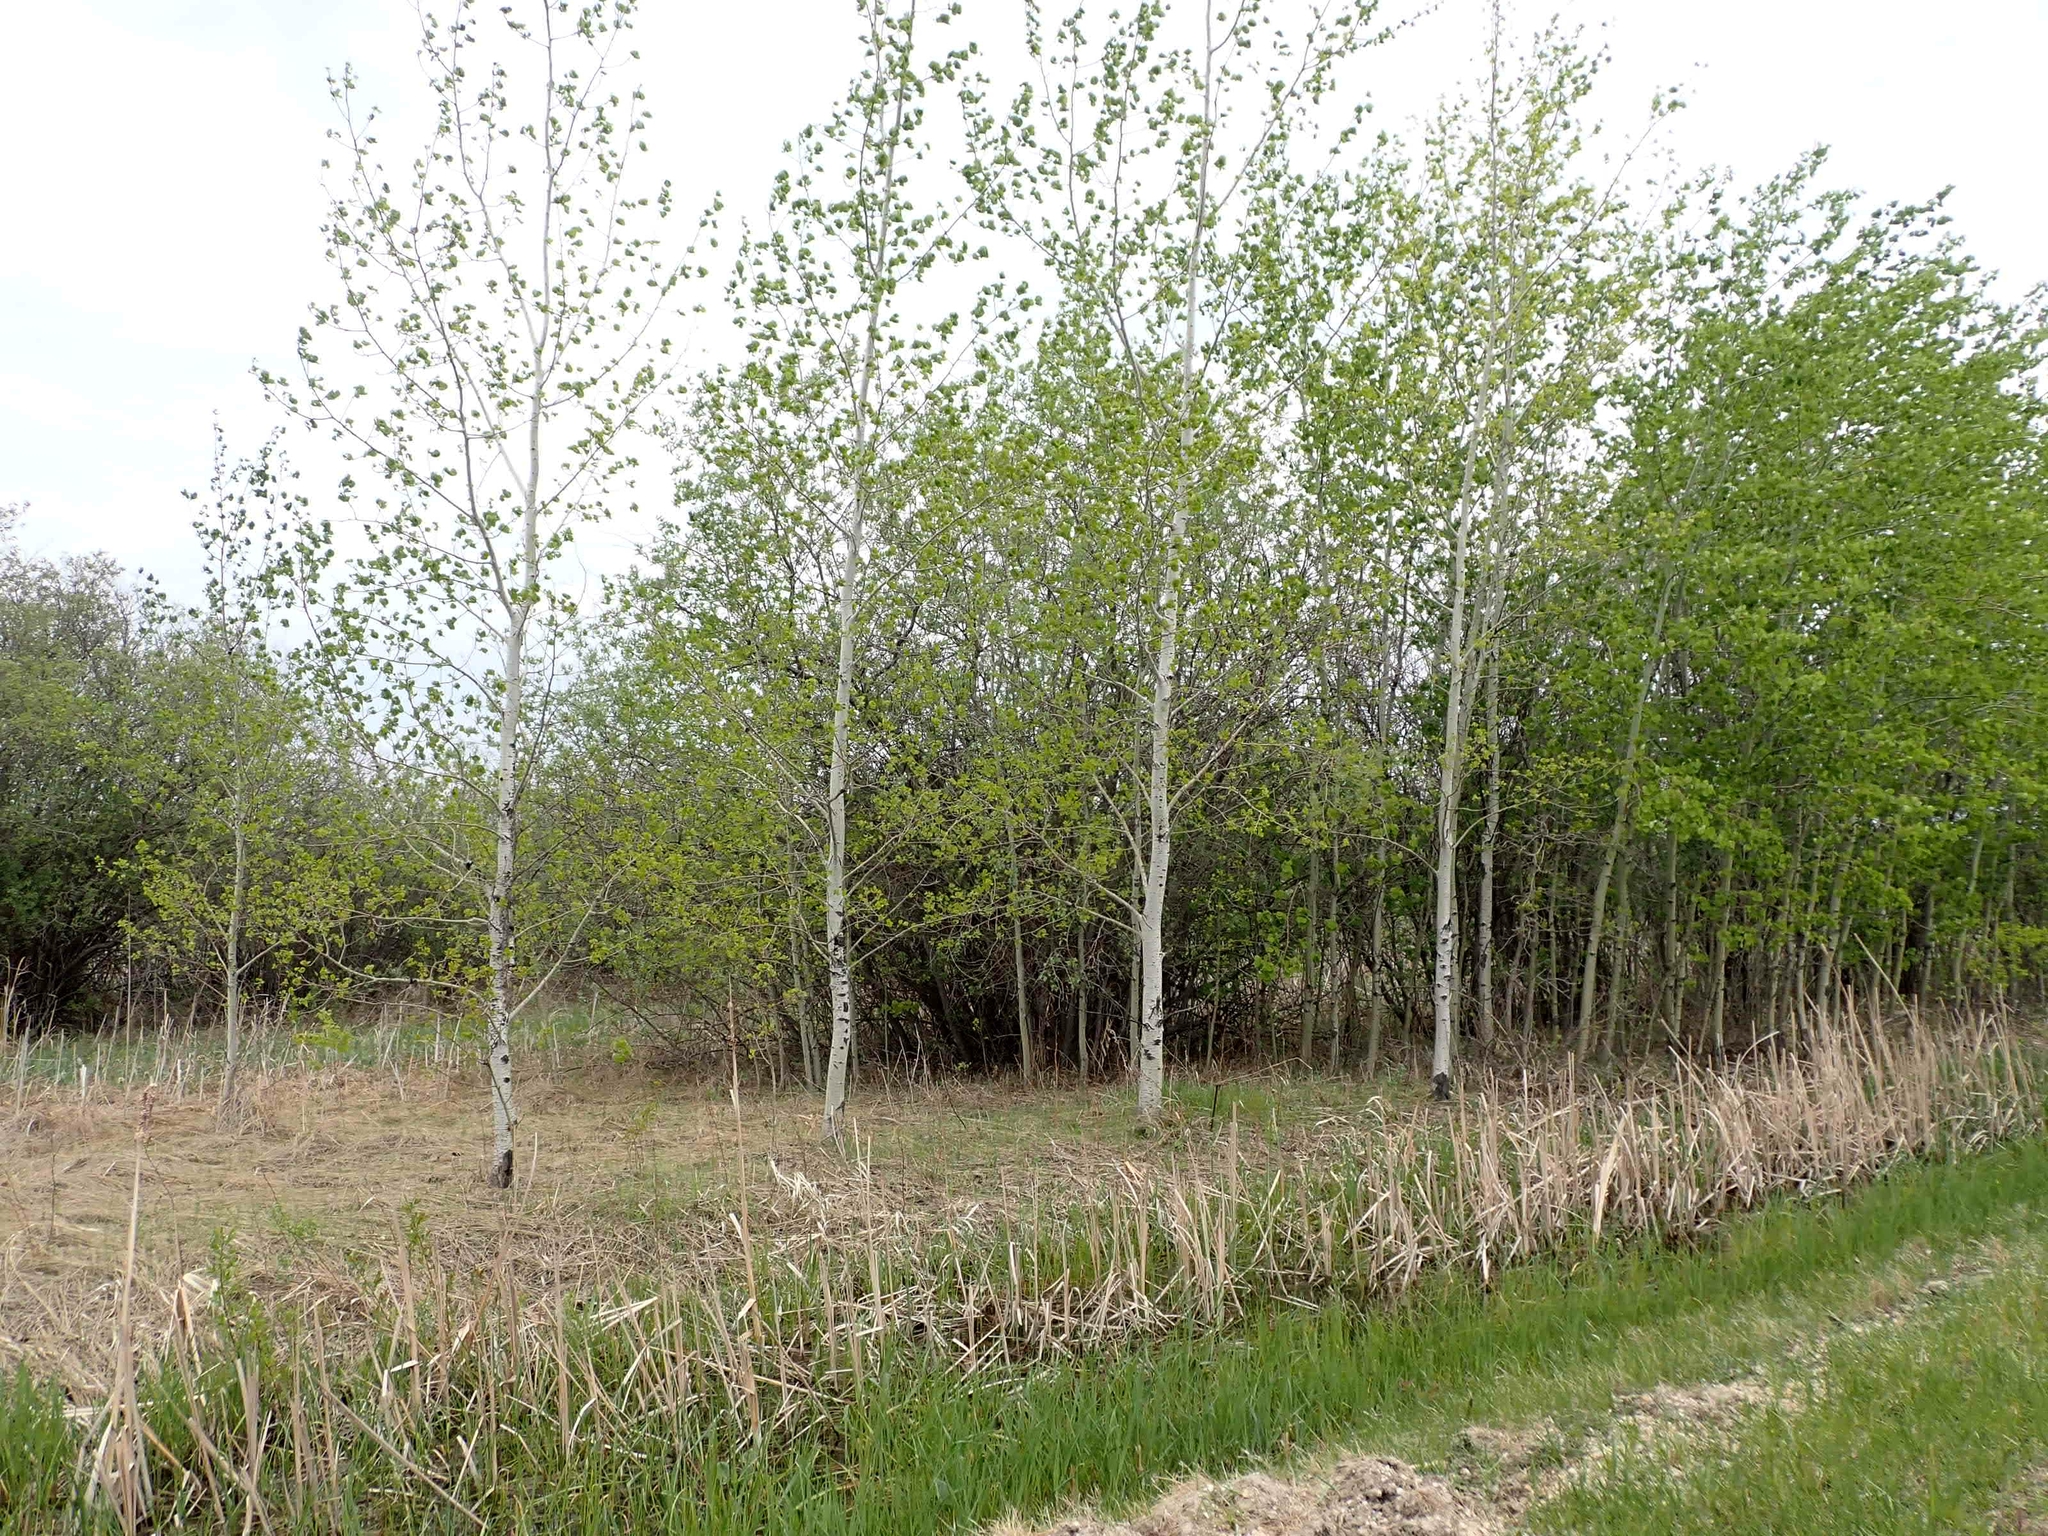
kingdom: Plantae
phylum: Tracheophyta
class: Magnoliopsida
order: Malpighiales
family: Salicaceae
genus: Populus
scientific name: Populus tremuloides
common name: Quaking aspen
